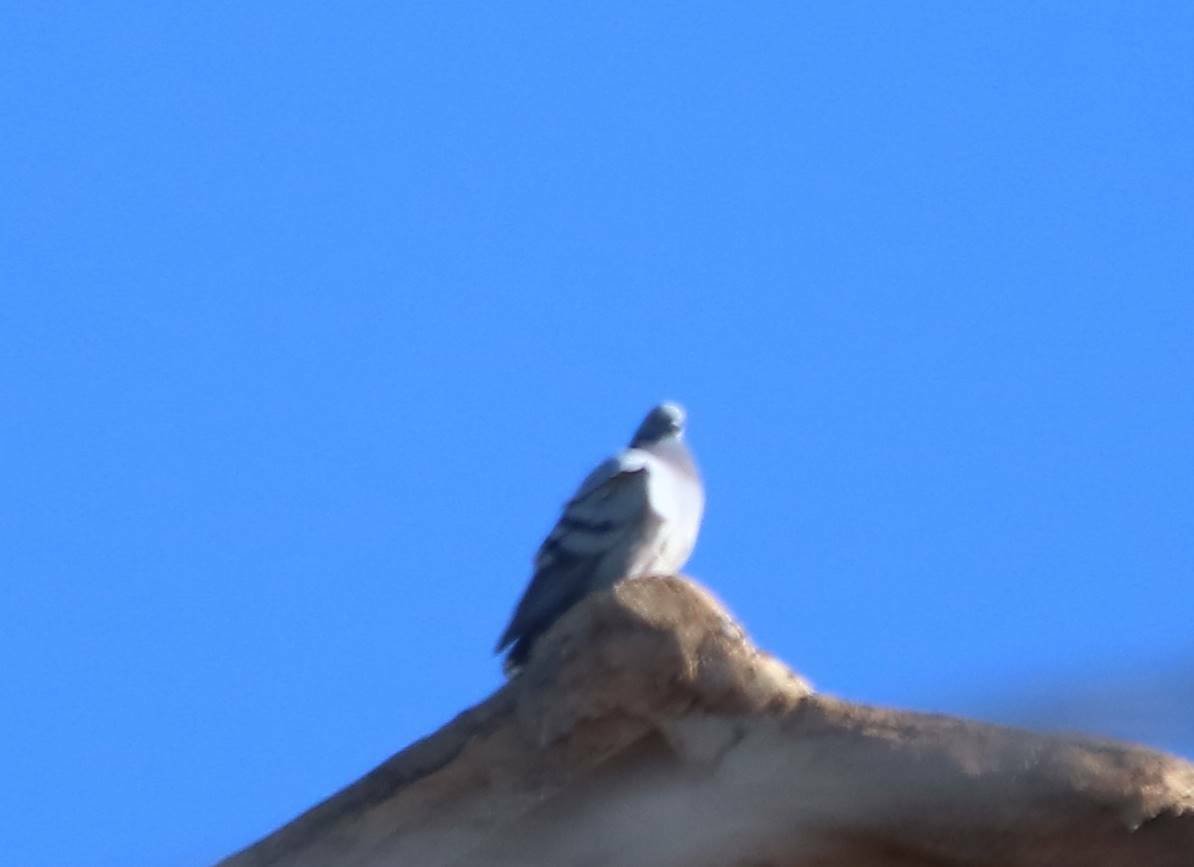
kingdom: Animalia
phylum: Chordata
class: Aves
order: Columbiformes
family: Columbidae
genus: Columba
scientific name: Columba livia
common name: Rock pigeon
